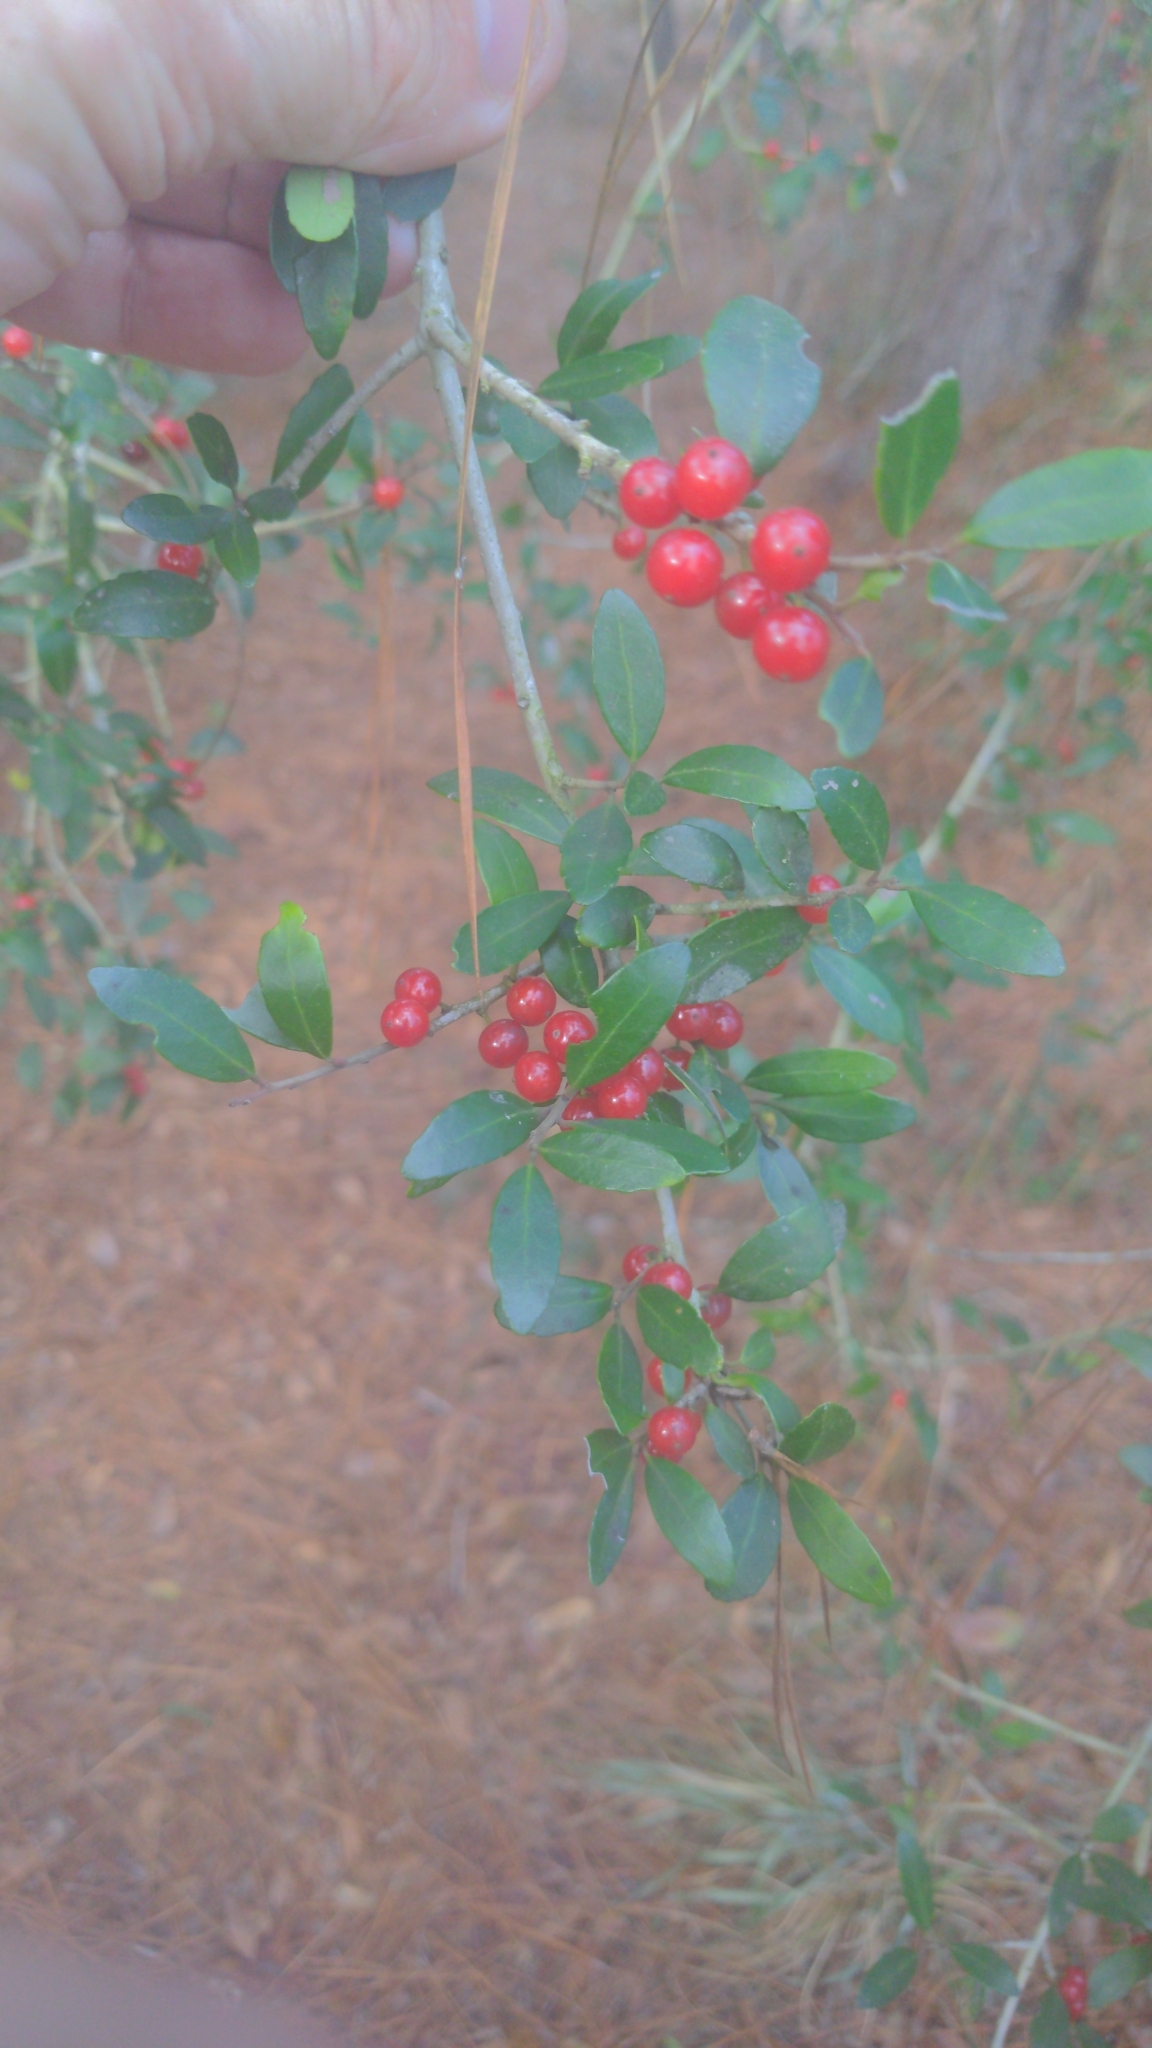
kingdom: Plantae
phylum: Tracheophyta
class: Magnoliopsida
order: Aquifoliales
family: Aquifoliaceae
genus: Ilex
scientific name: Ilex vomitoria
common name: Yaupon holly
